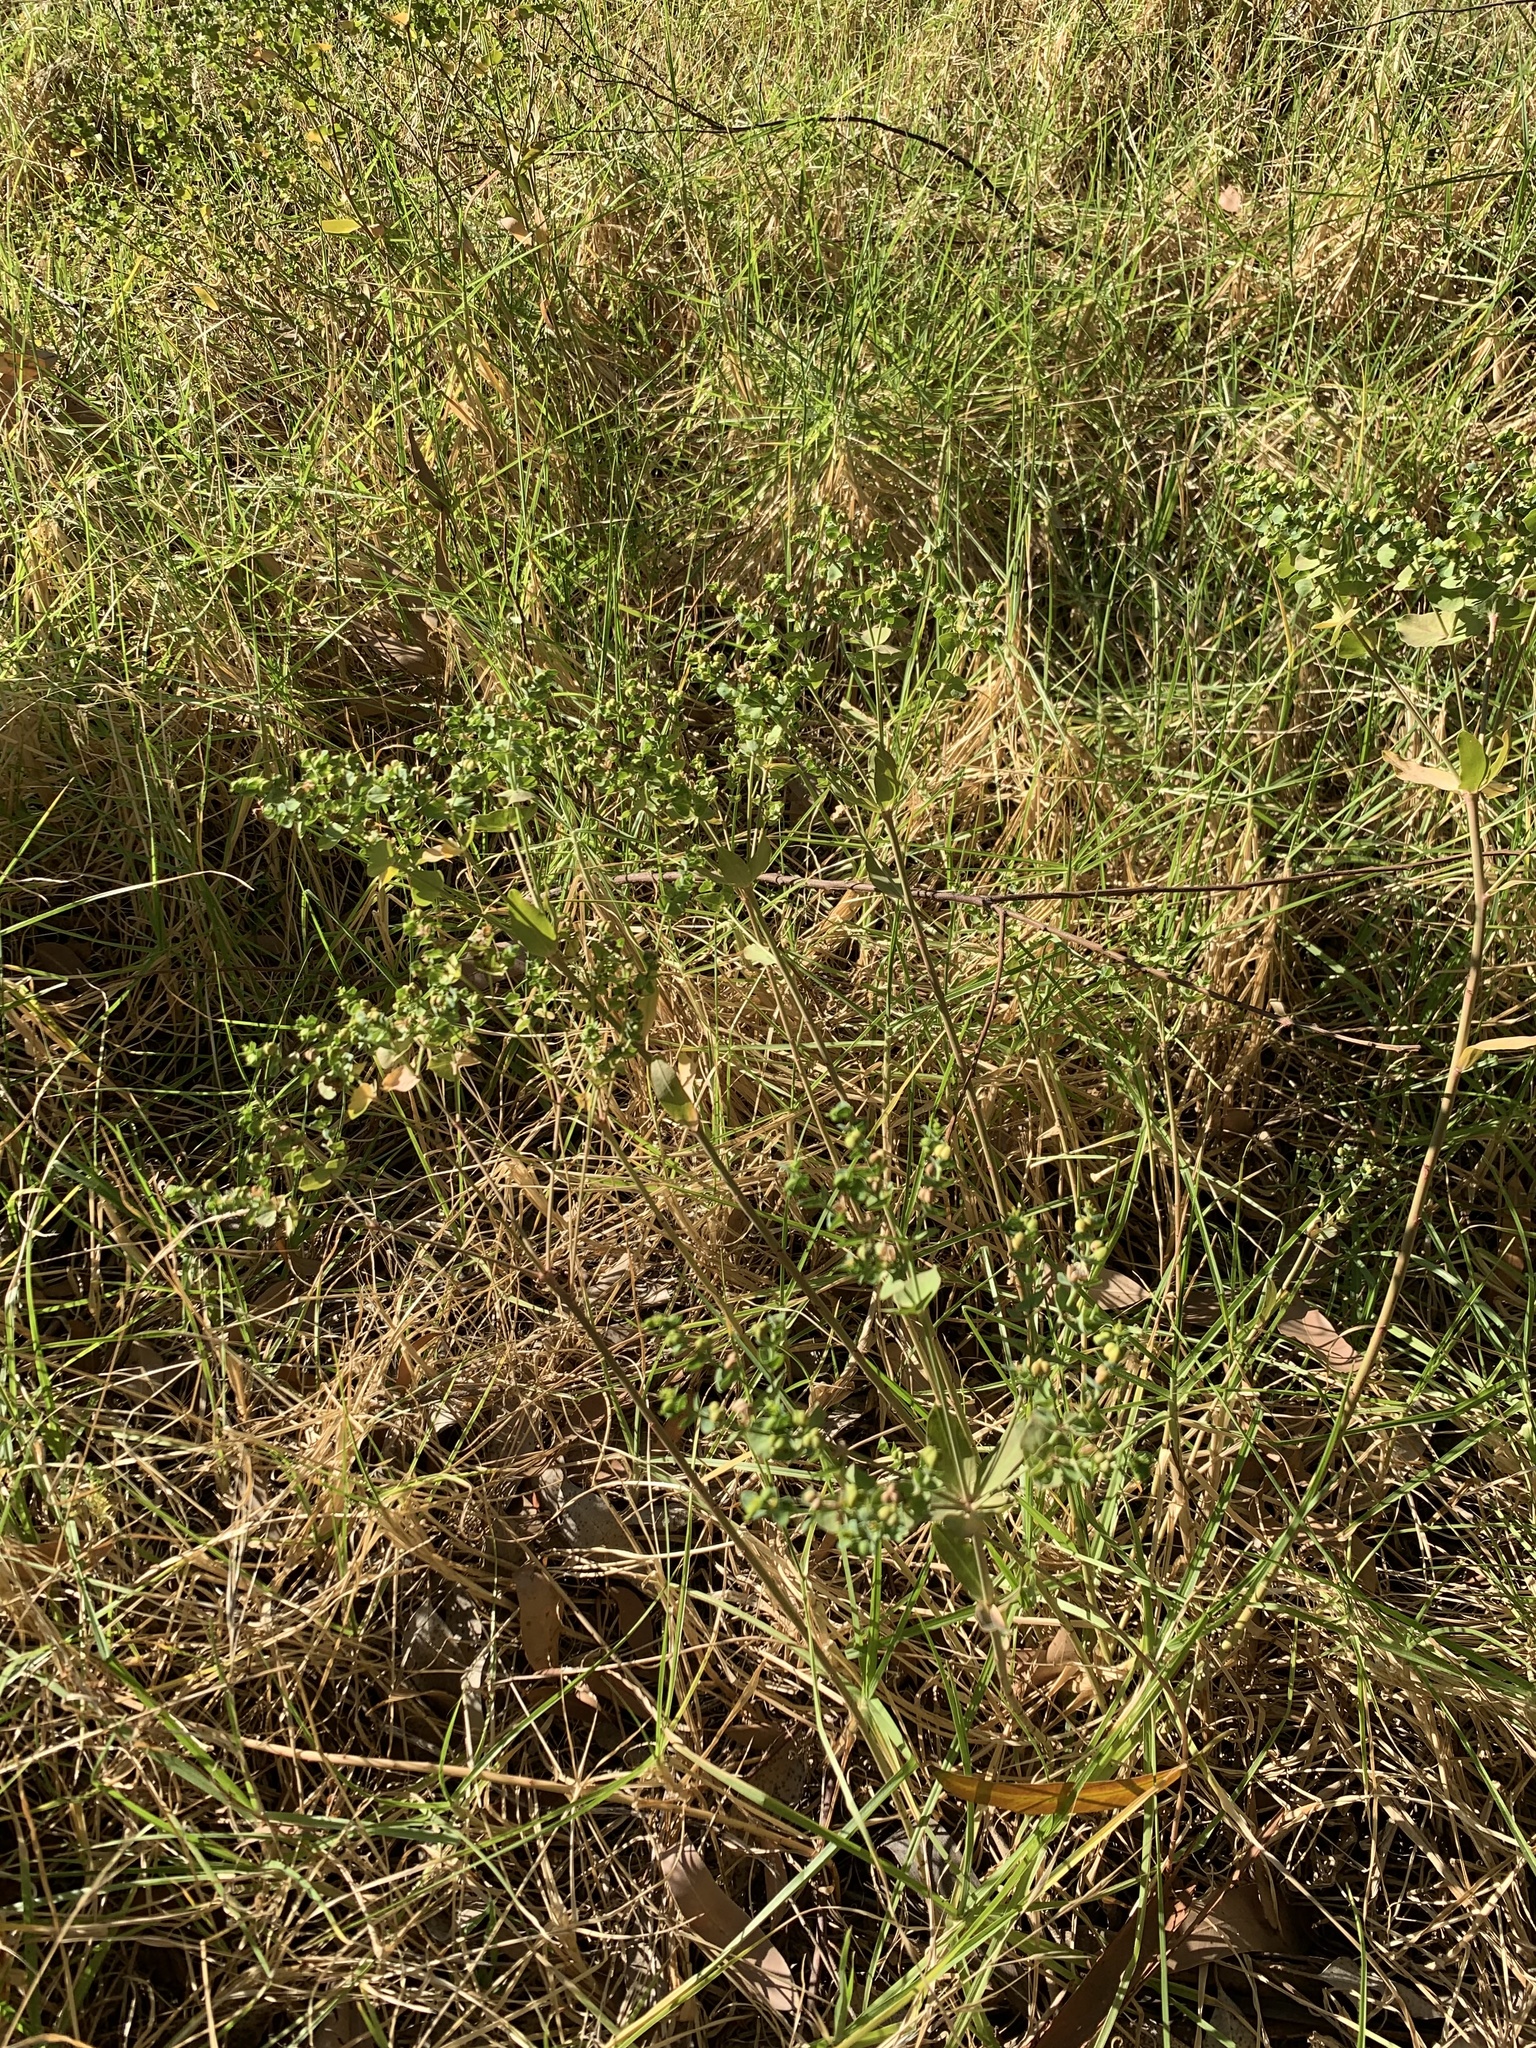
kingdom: Plantae
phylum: Tracheophyta
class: Magnoliopsida
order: Malpighiales
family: Euphorbiaceae
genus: Euphorbia
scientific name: Euphorbia terracina
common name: Geraldton carnation weed
